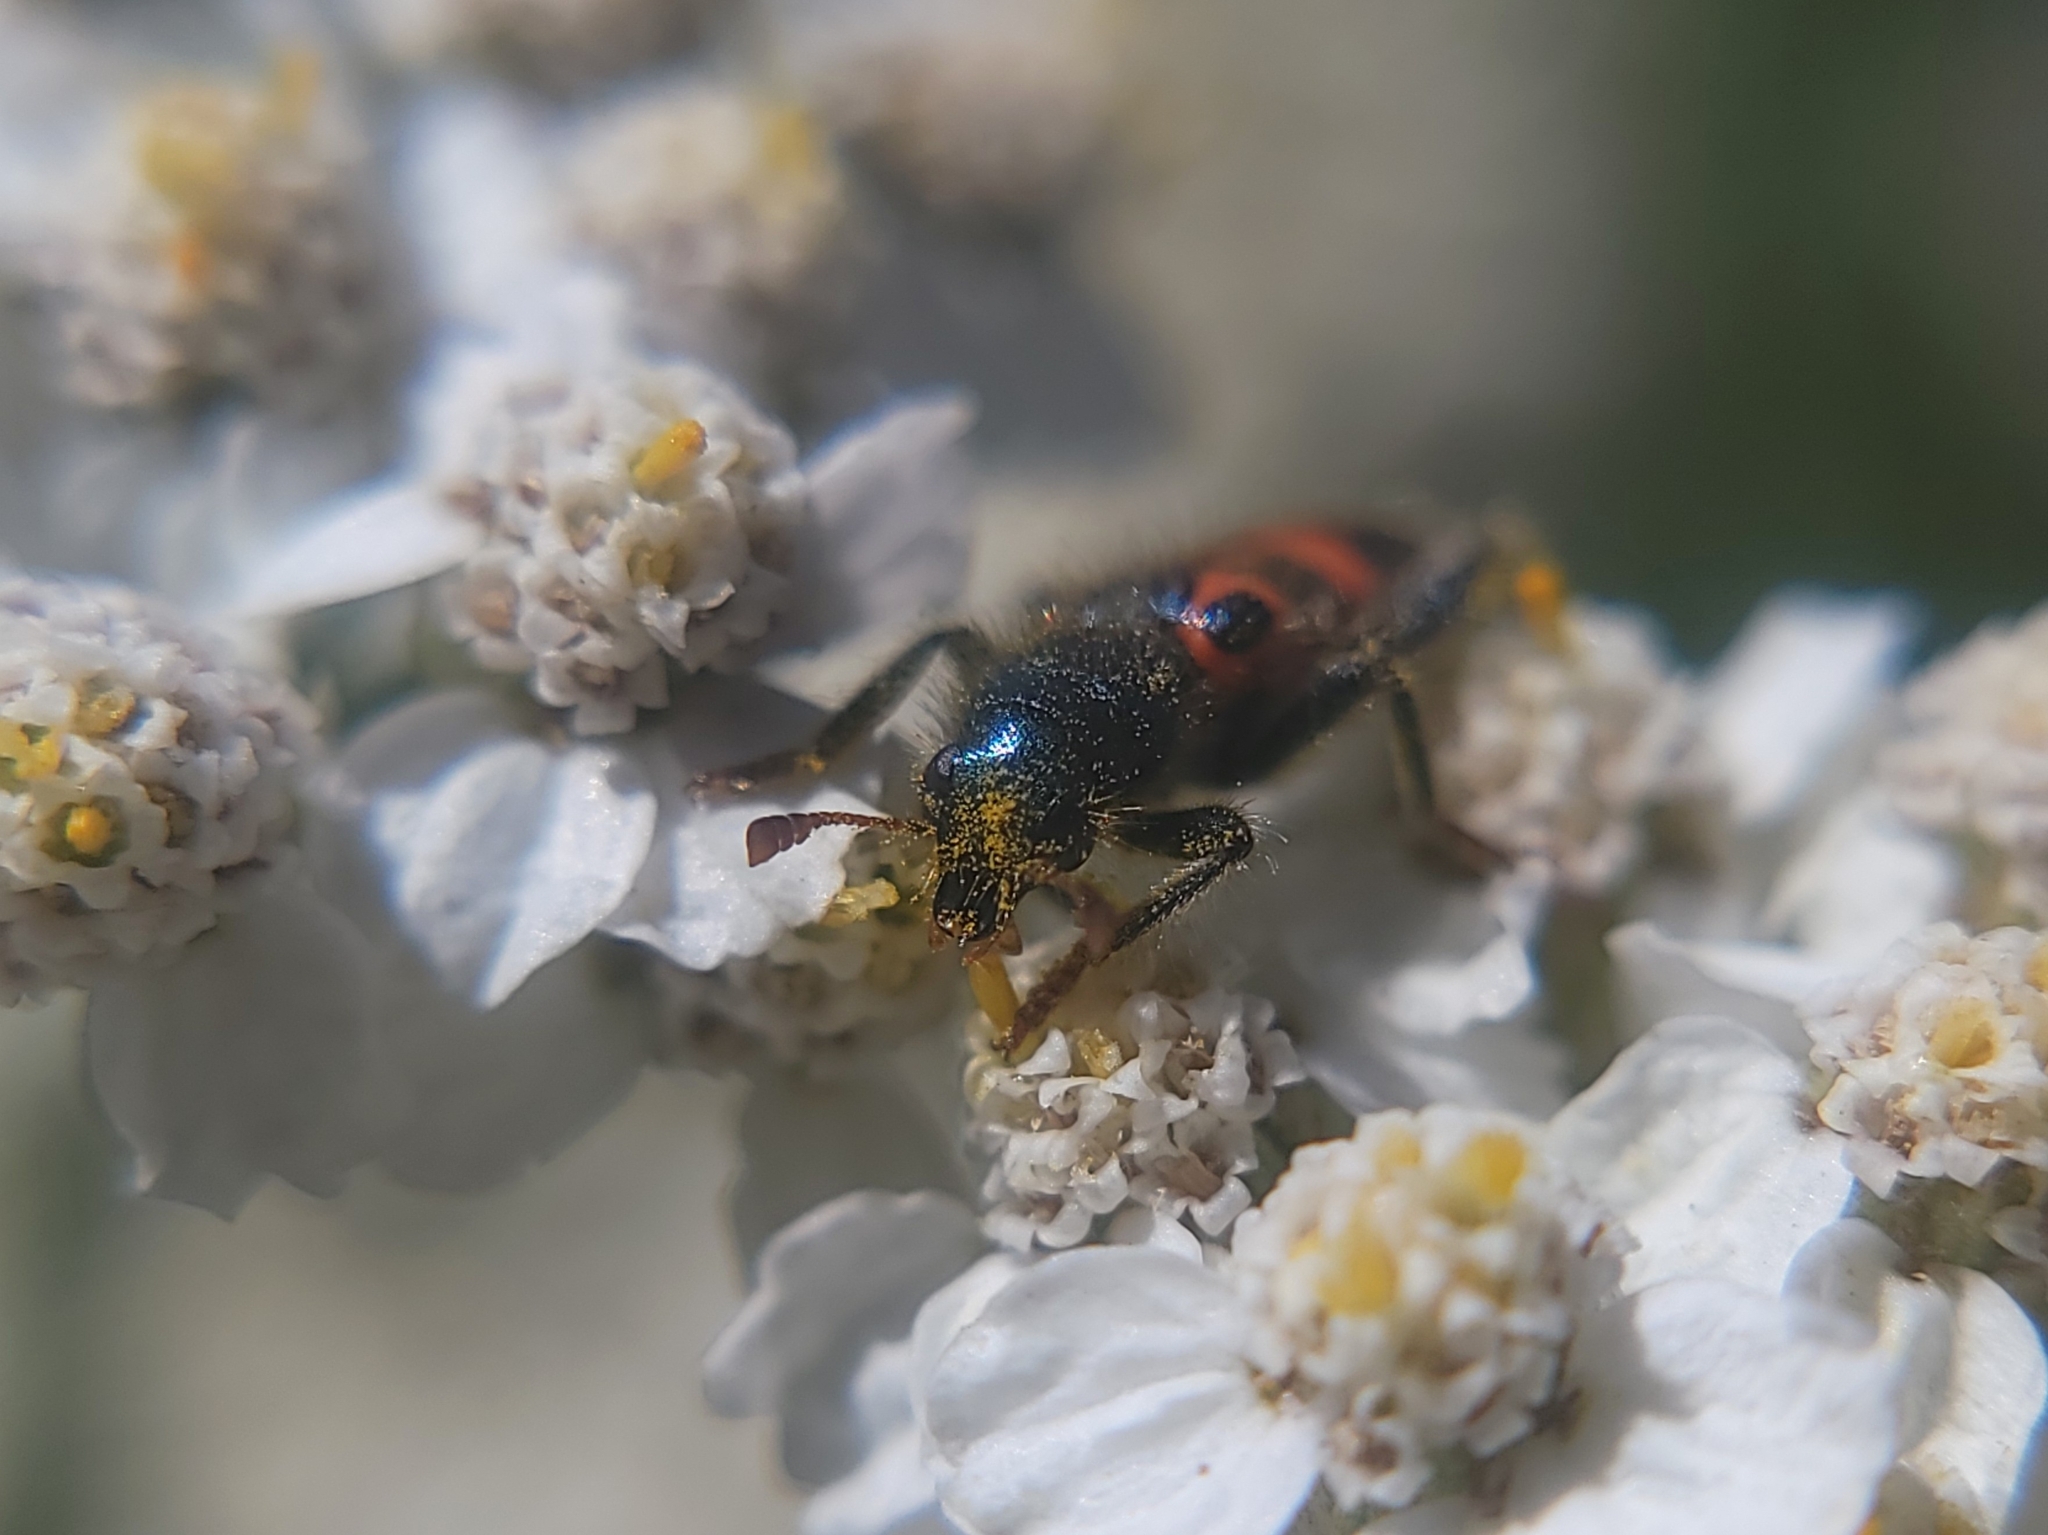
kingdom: Animalia
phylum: Arthropoda
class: Insecta
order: Coleoptera
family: Cleridae
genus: Trichodes
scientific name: Trichodes ornatus
